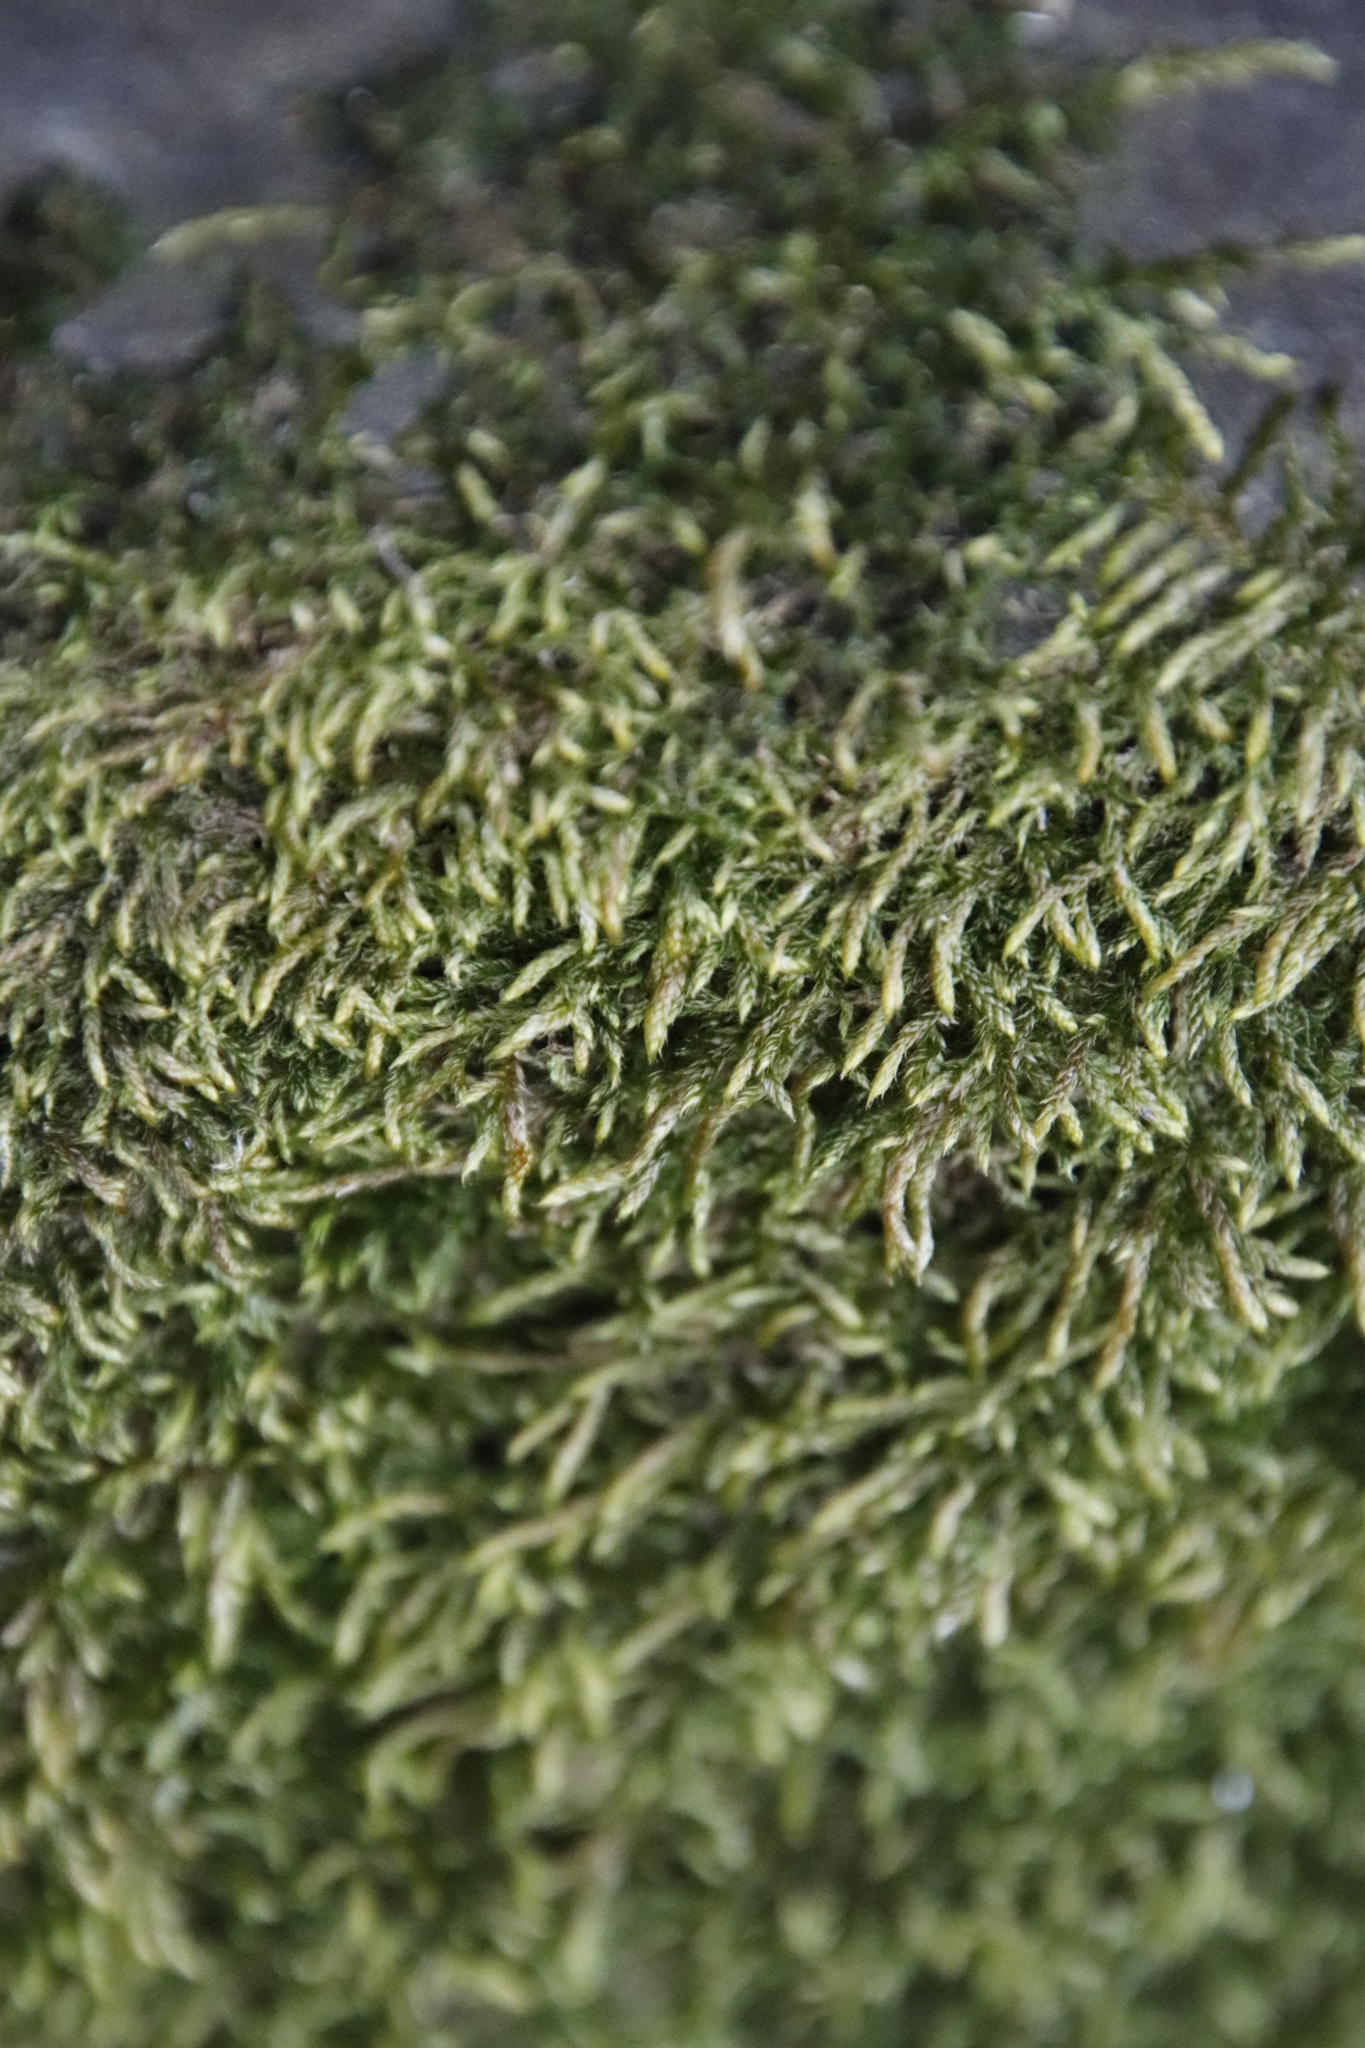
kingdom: Plantae
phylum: Bryophyta
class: Bryopsida
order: Hypnales
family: Fabroniaceae
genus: Ischyrodon
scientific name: Ischyrodon lepturus
